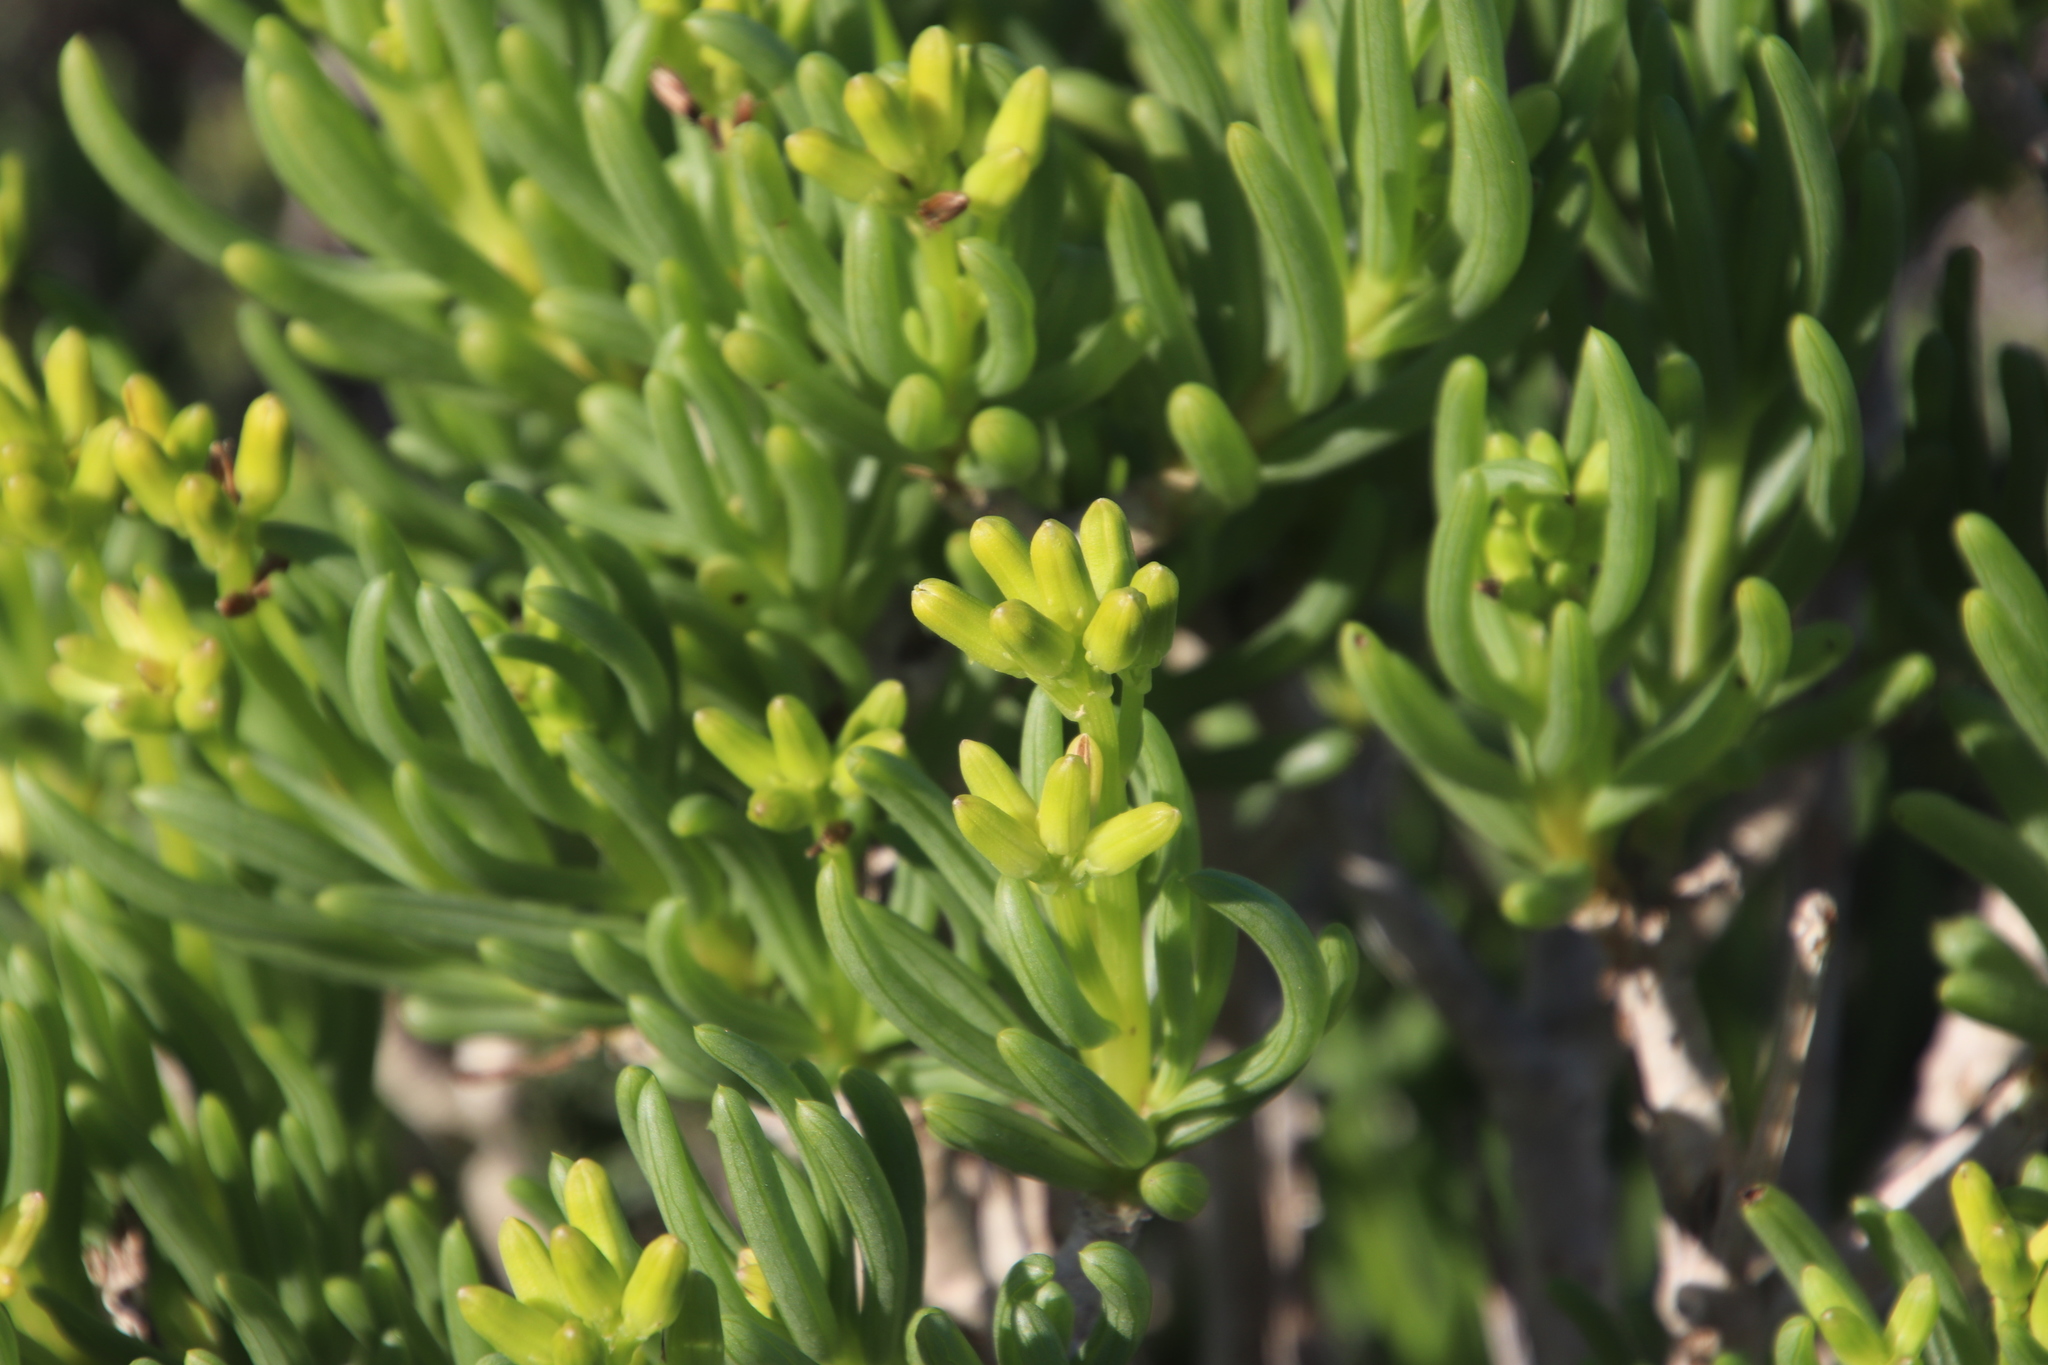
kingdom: Plantae
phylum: Tracheophyta
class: Magnoliopsida
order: Asterales
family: Asteraceae
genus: Curio
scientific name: Curio corymbifer
